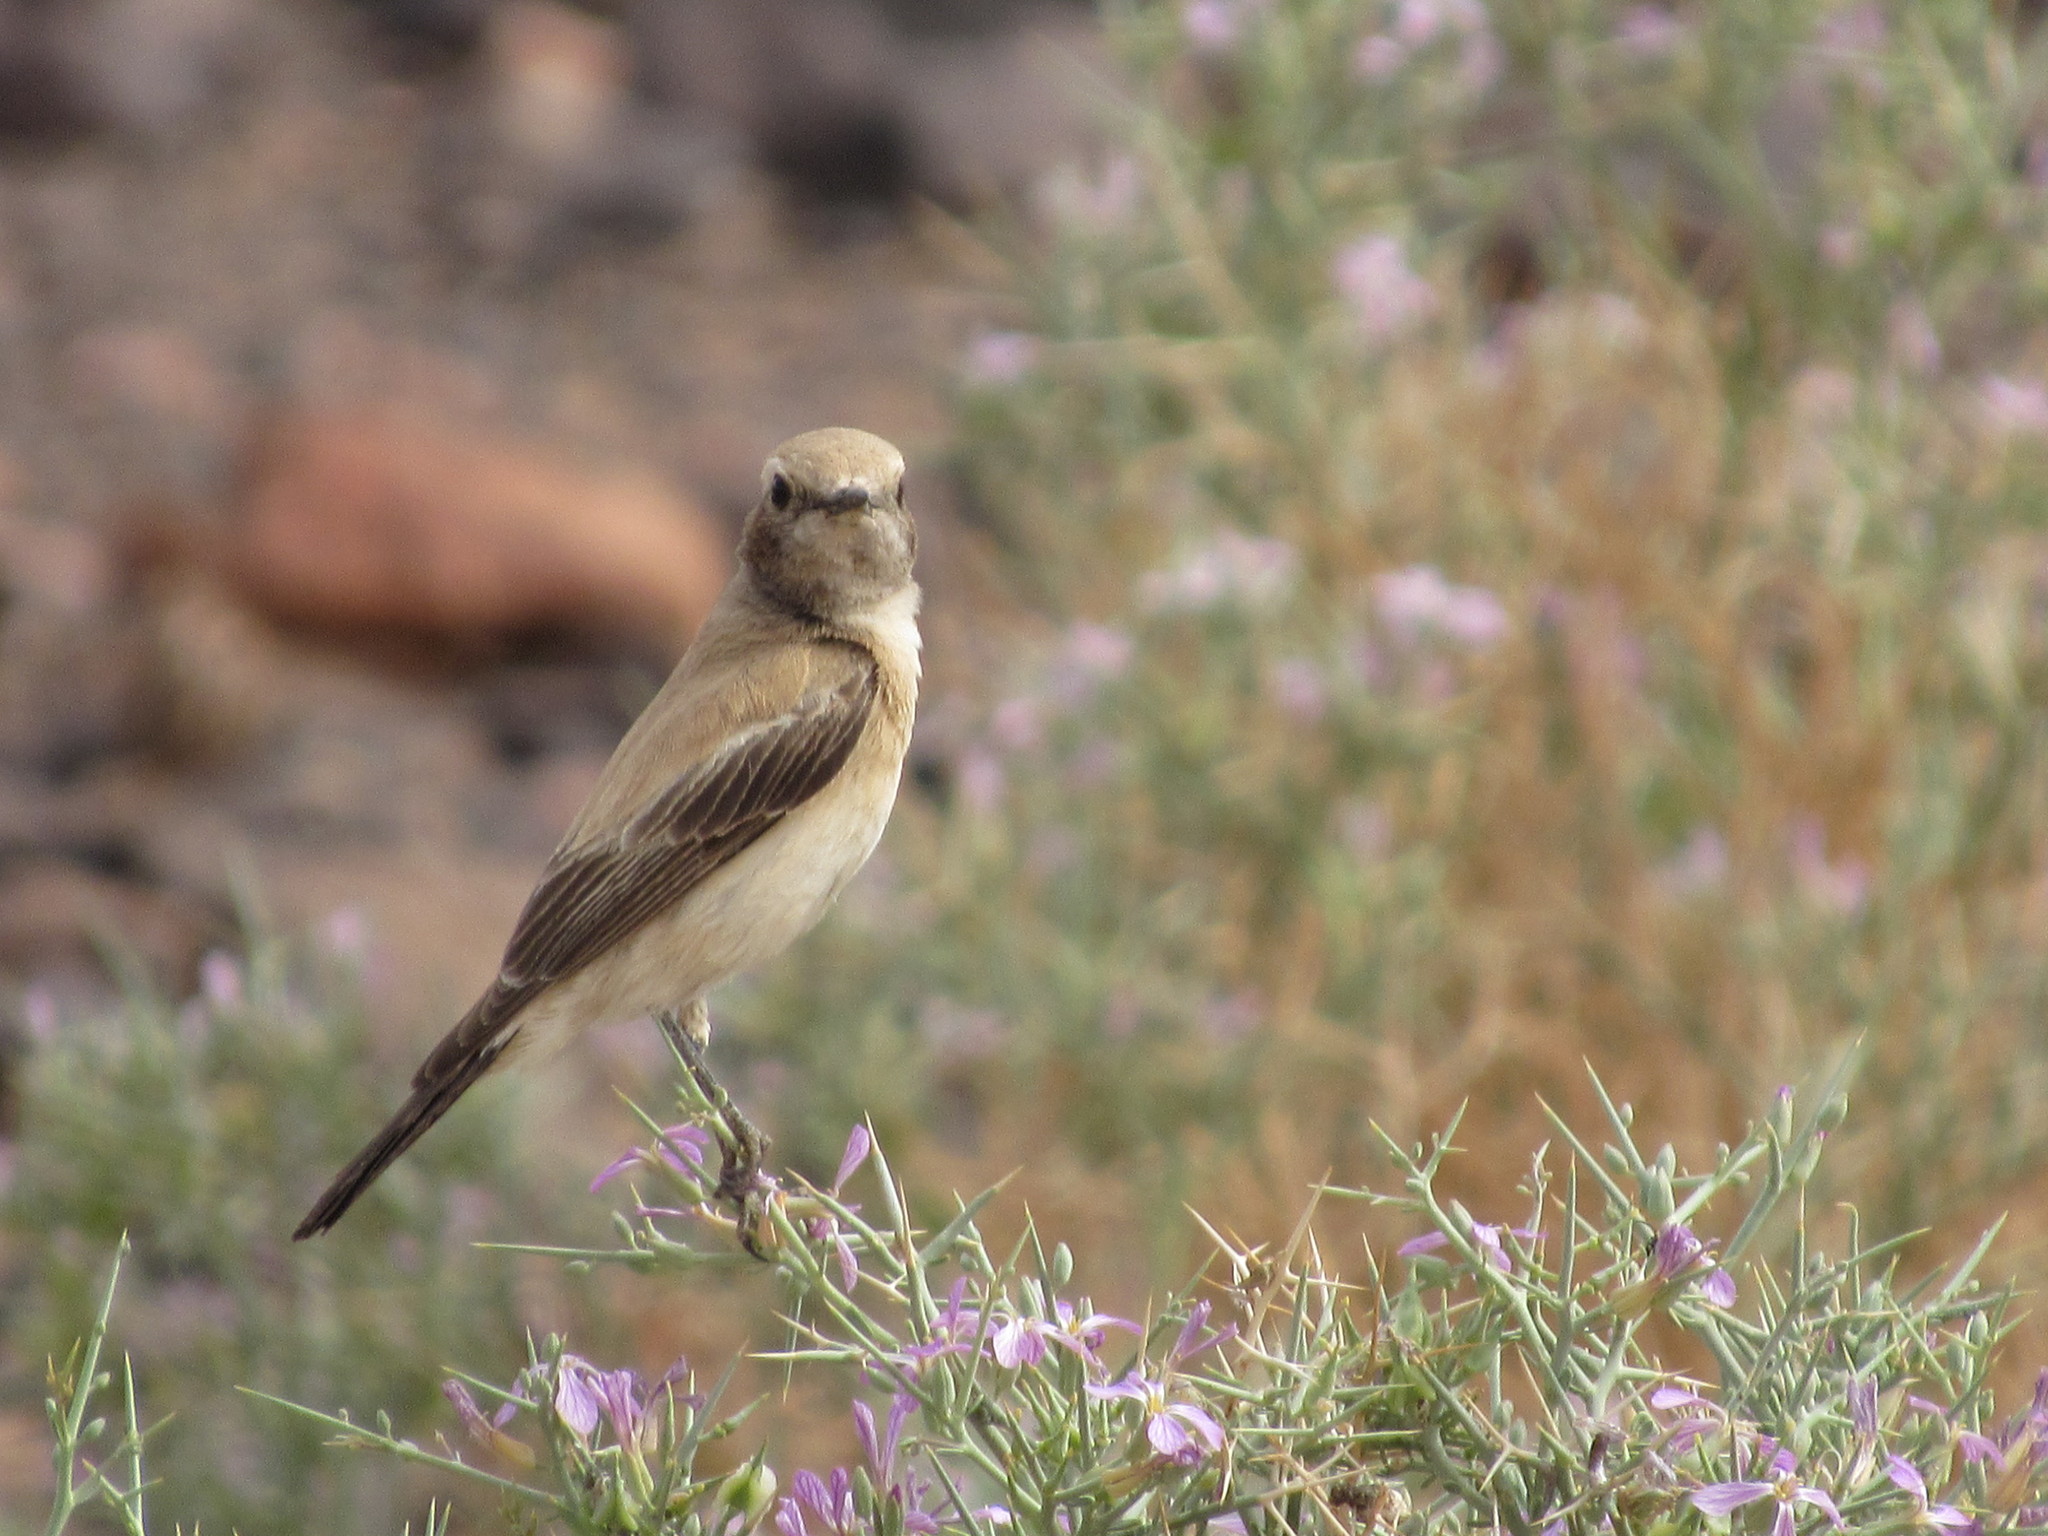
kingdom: Animalia
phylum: Chordata
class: Aves
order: Passeriformes
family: Muscicapidae
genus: Oenanthe
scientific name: Oenanthe deserti
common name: Desert wheatear
